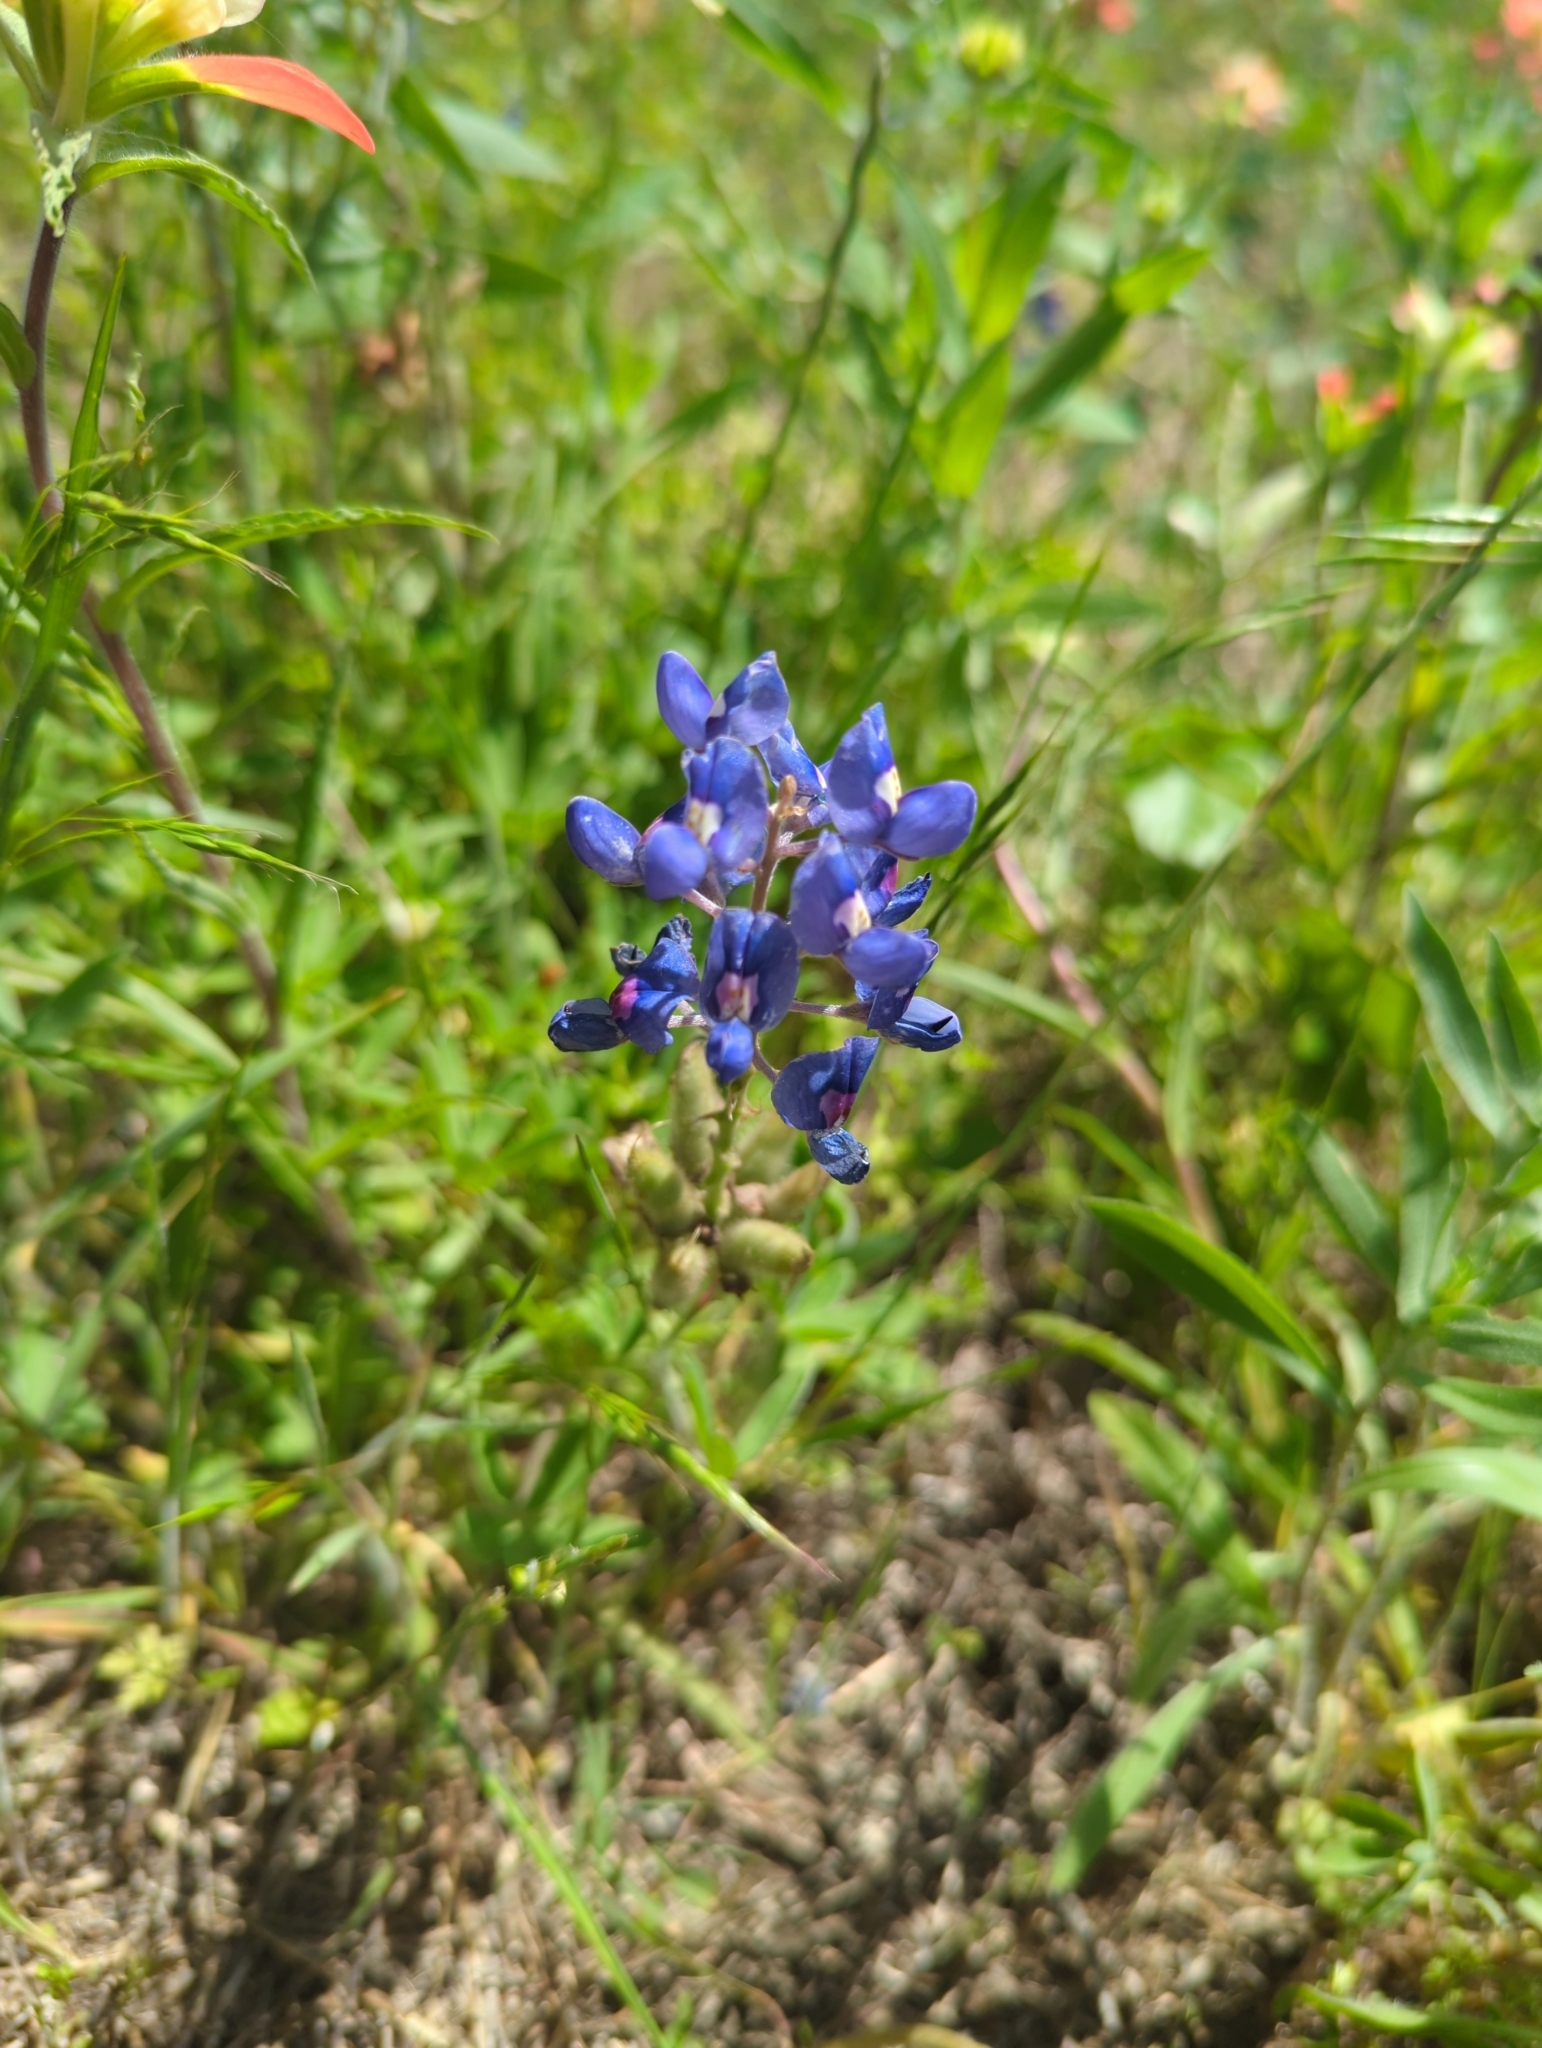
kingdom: Plantae
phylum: Tracheophyta
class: Magnoliopsida
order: Fabales
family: Fabaceae
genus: Lupinus
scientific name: Lupinus texensis
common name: Texas bluebonnet
